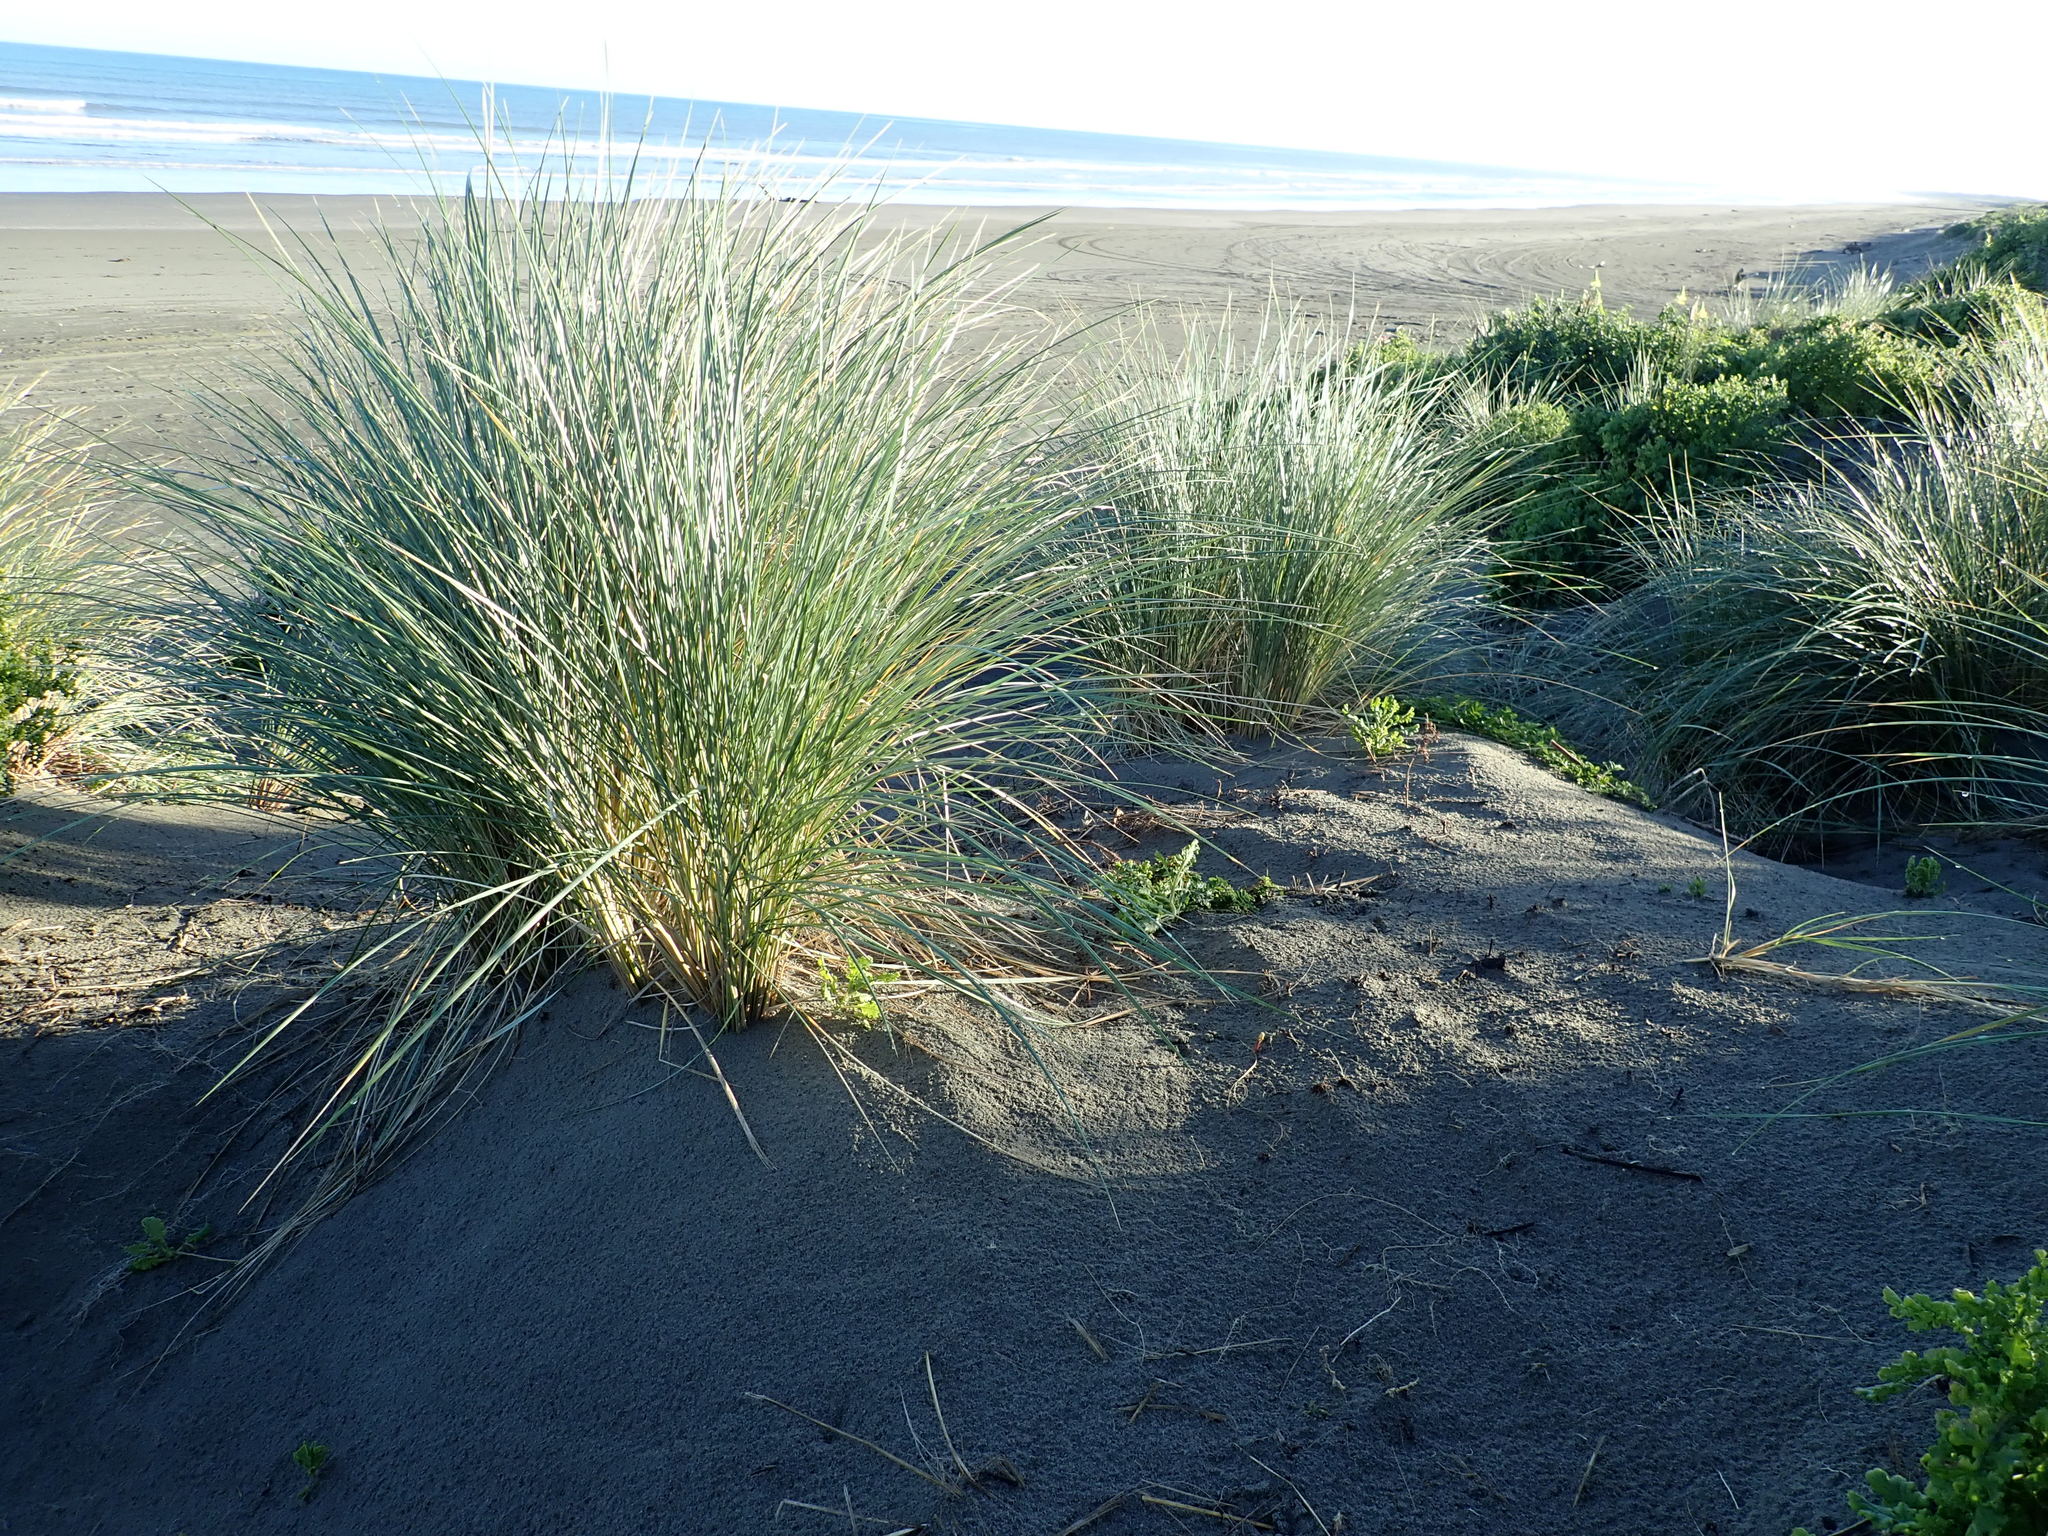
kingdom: Plantae
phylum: Tracheophyta
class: Liliopsida
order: Poales
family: Poaceae
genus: Calamagrostis
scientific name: Calamagrostis arenaria
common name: European beachgrass
